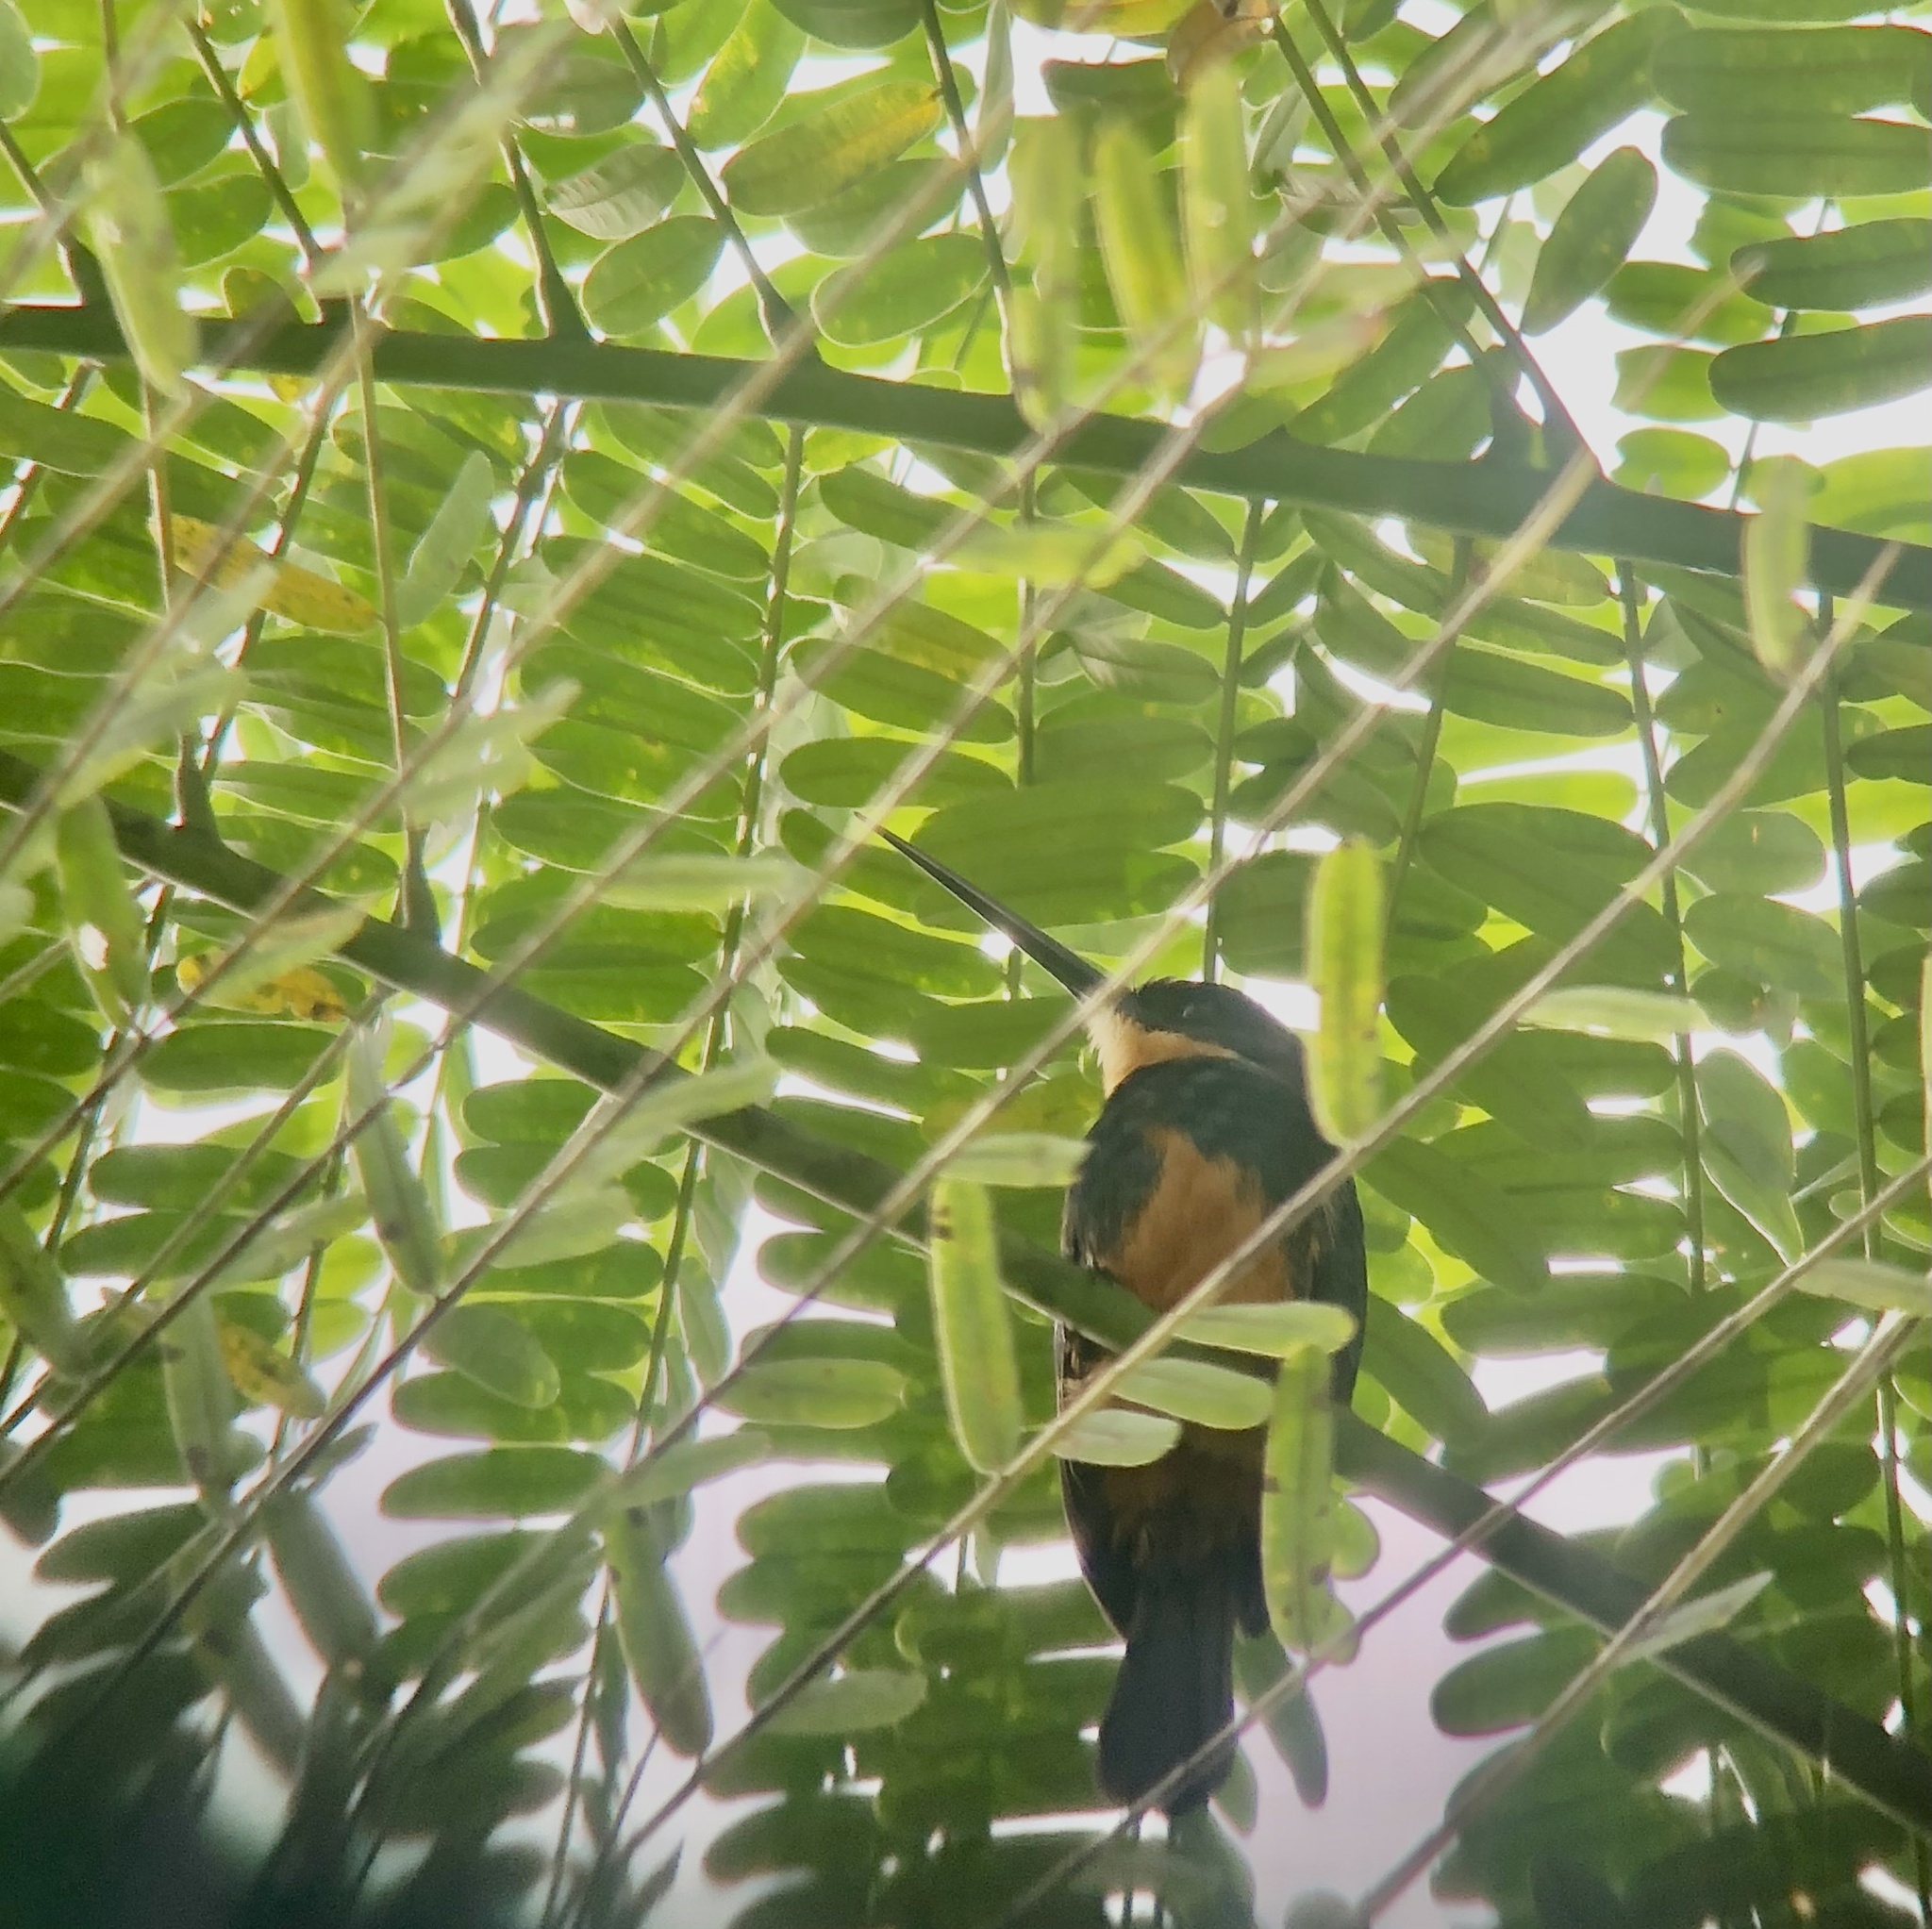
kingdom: Animalia
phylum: Chordata
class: Aves
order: Piciformes
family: Galbulidae
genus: Brachygalba
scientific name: Brachygalba salmoni
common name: Dusky-backed jacamar
